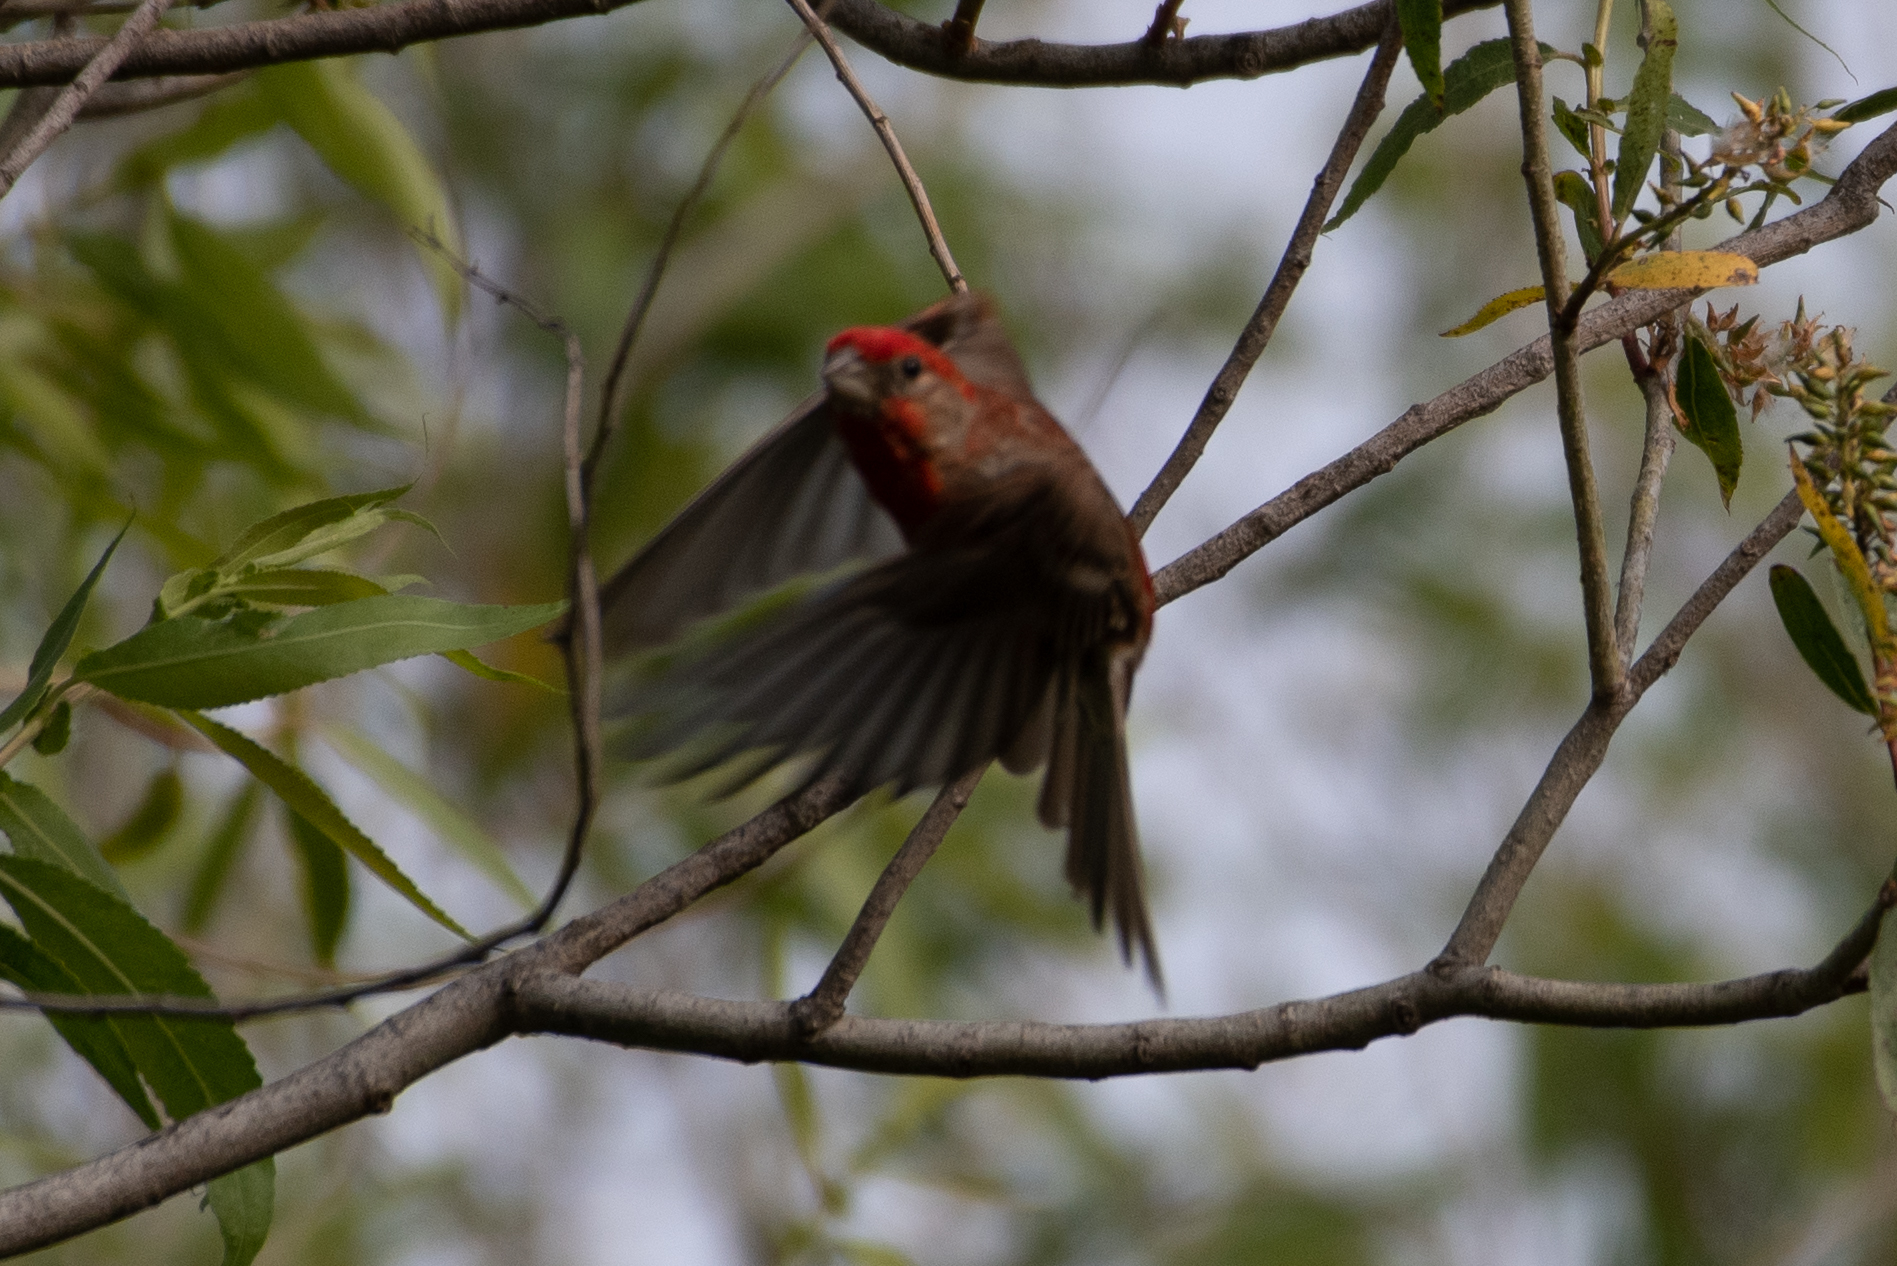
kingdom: Animalia
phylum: Chordata
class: Aves
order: Passeriformes
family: Fringillidae
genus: Haemorhous
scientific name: Haemorhous mexicanus
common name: House finch
